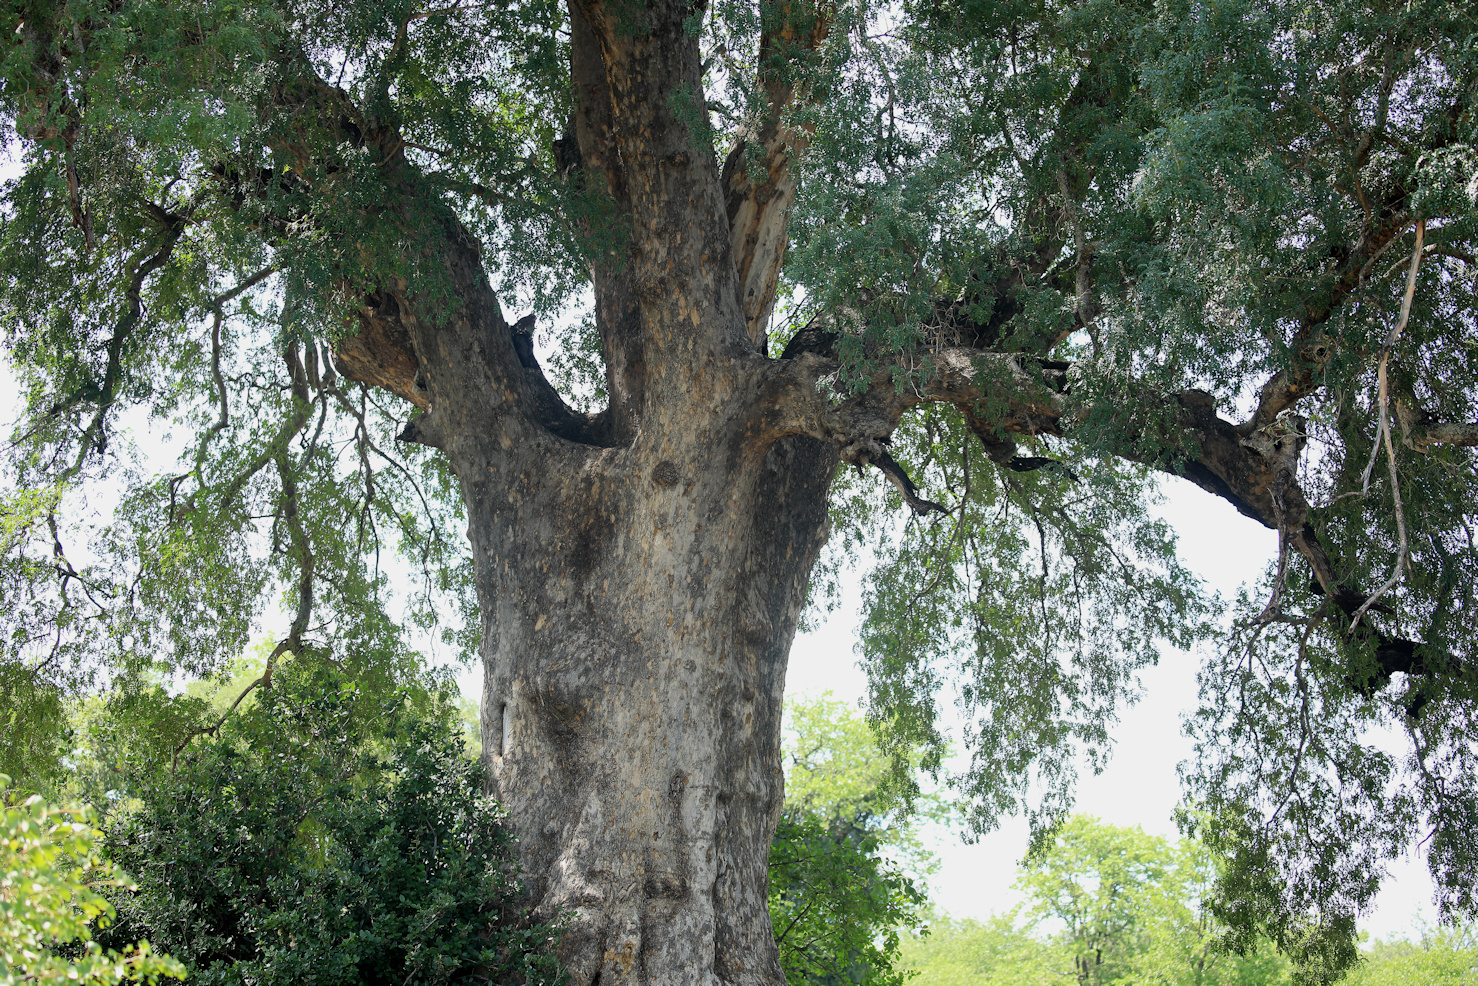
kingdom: Plantae
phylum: Tracheophyta
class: Magnoliopsida
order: Fabales
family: Fabaceae
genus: Xanthocercis
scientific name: Xanthocercis zambesiaca
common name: Nyala-tree
